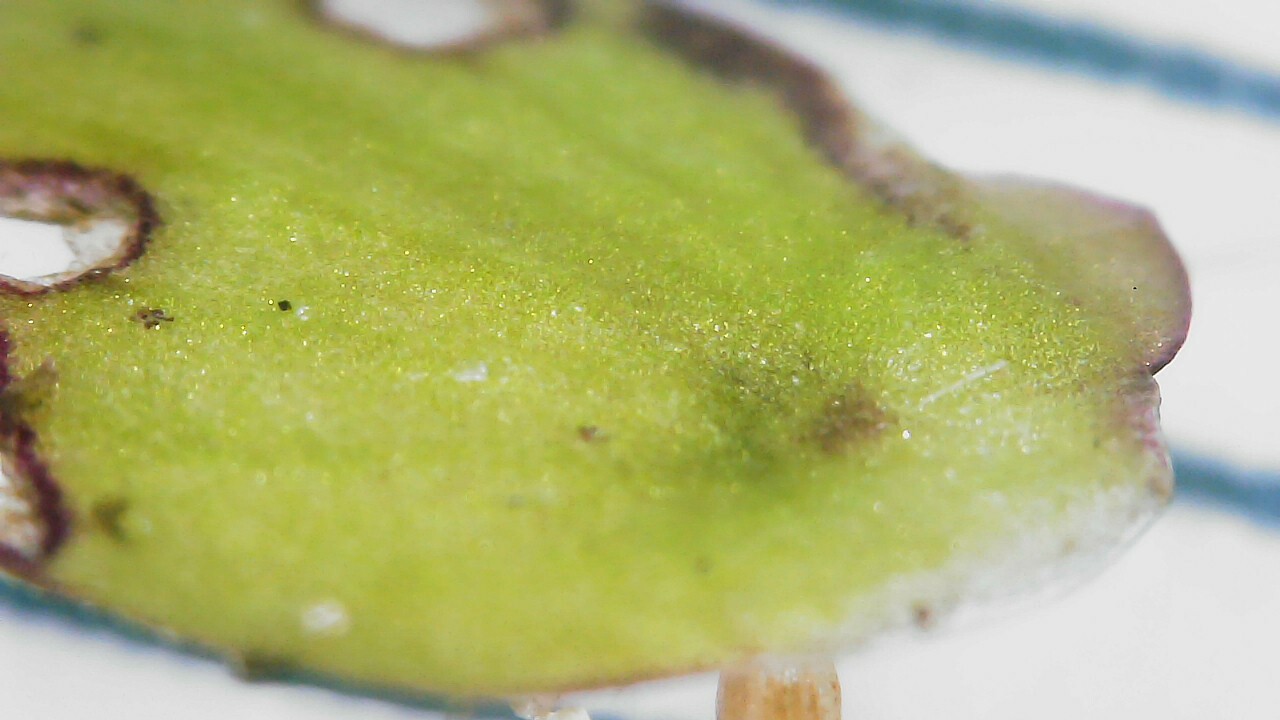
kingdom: Plantae
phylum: Tracheophyta
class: Liliopsida
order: Alismatales
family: Araceae
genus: Spirodela
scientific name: Spirodela polyrhiza
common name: Great duckweed
